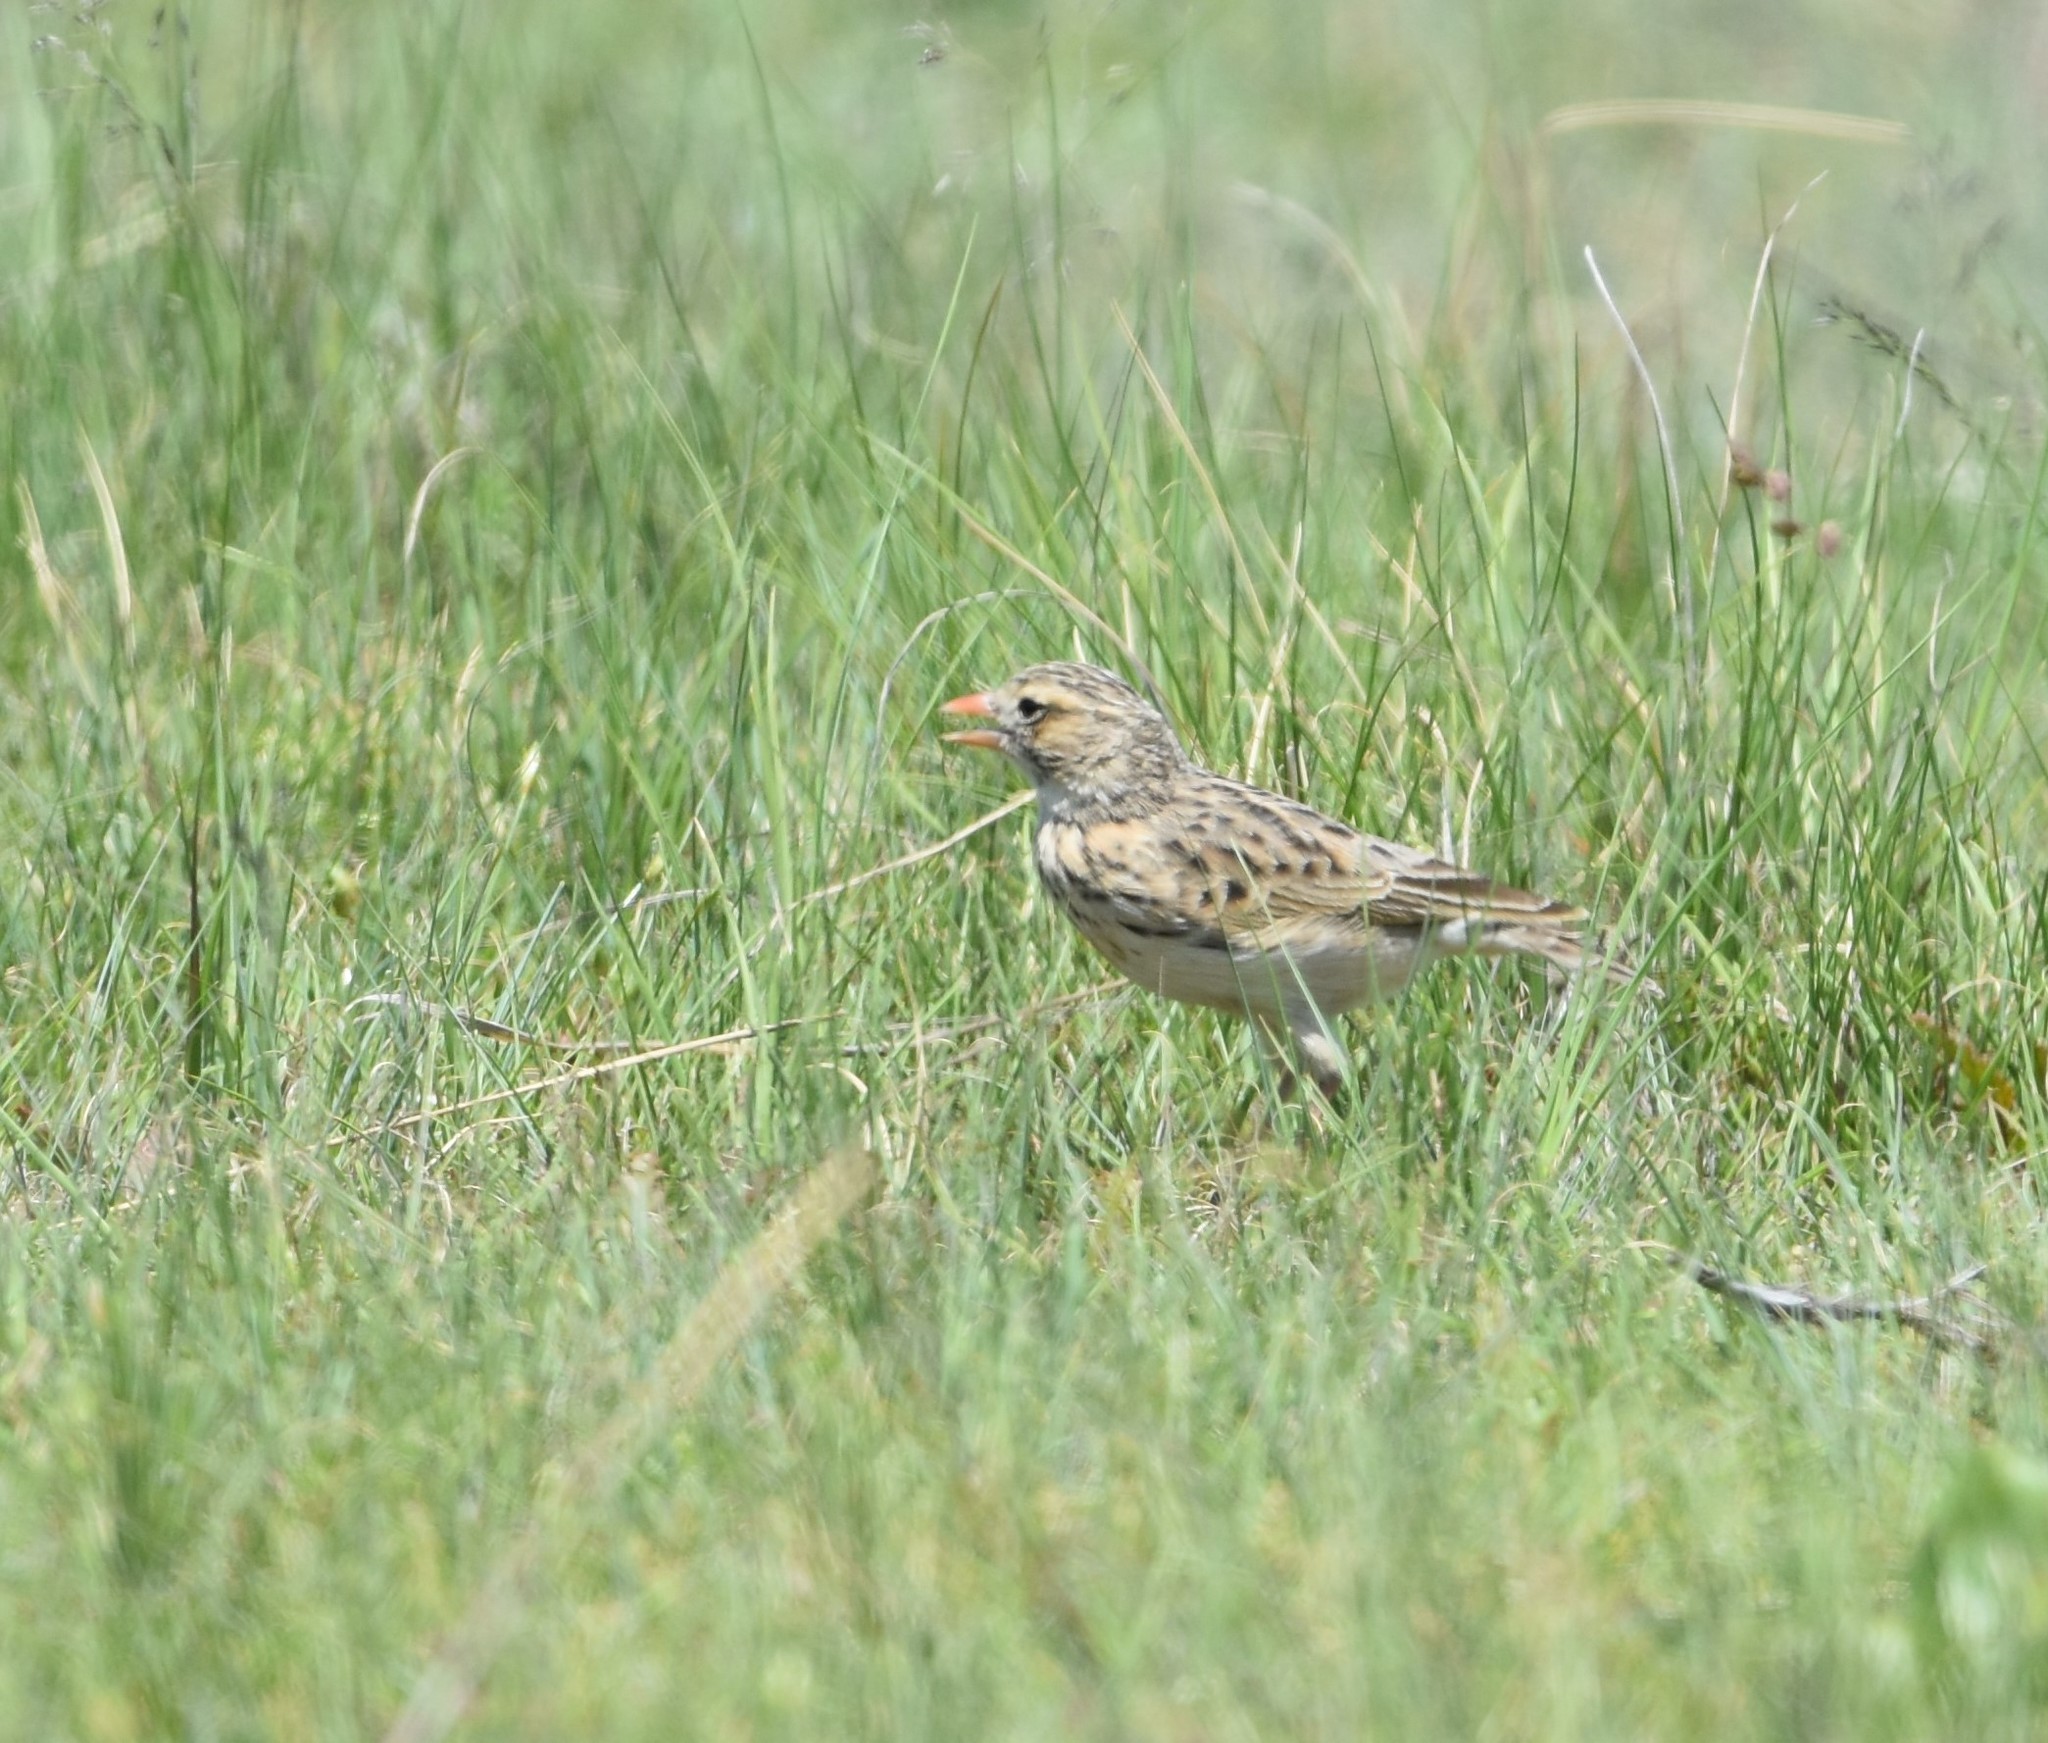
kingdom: Animalia
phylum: Chordata
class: Aves
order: Passeriformes
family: Alaudidae
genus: Spizocorys
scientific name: Spizocorys fringillaris
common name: Botha's lark
